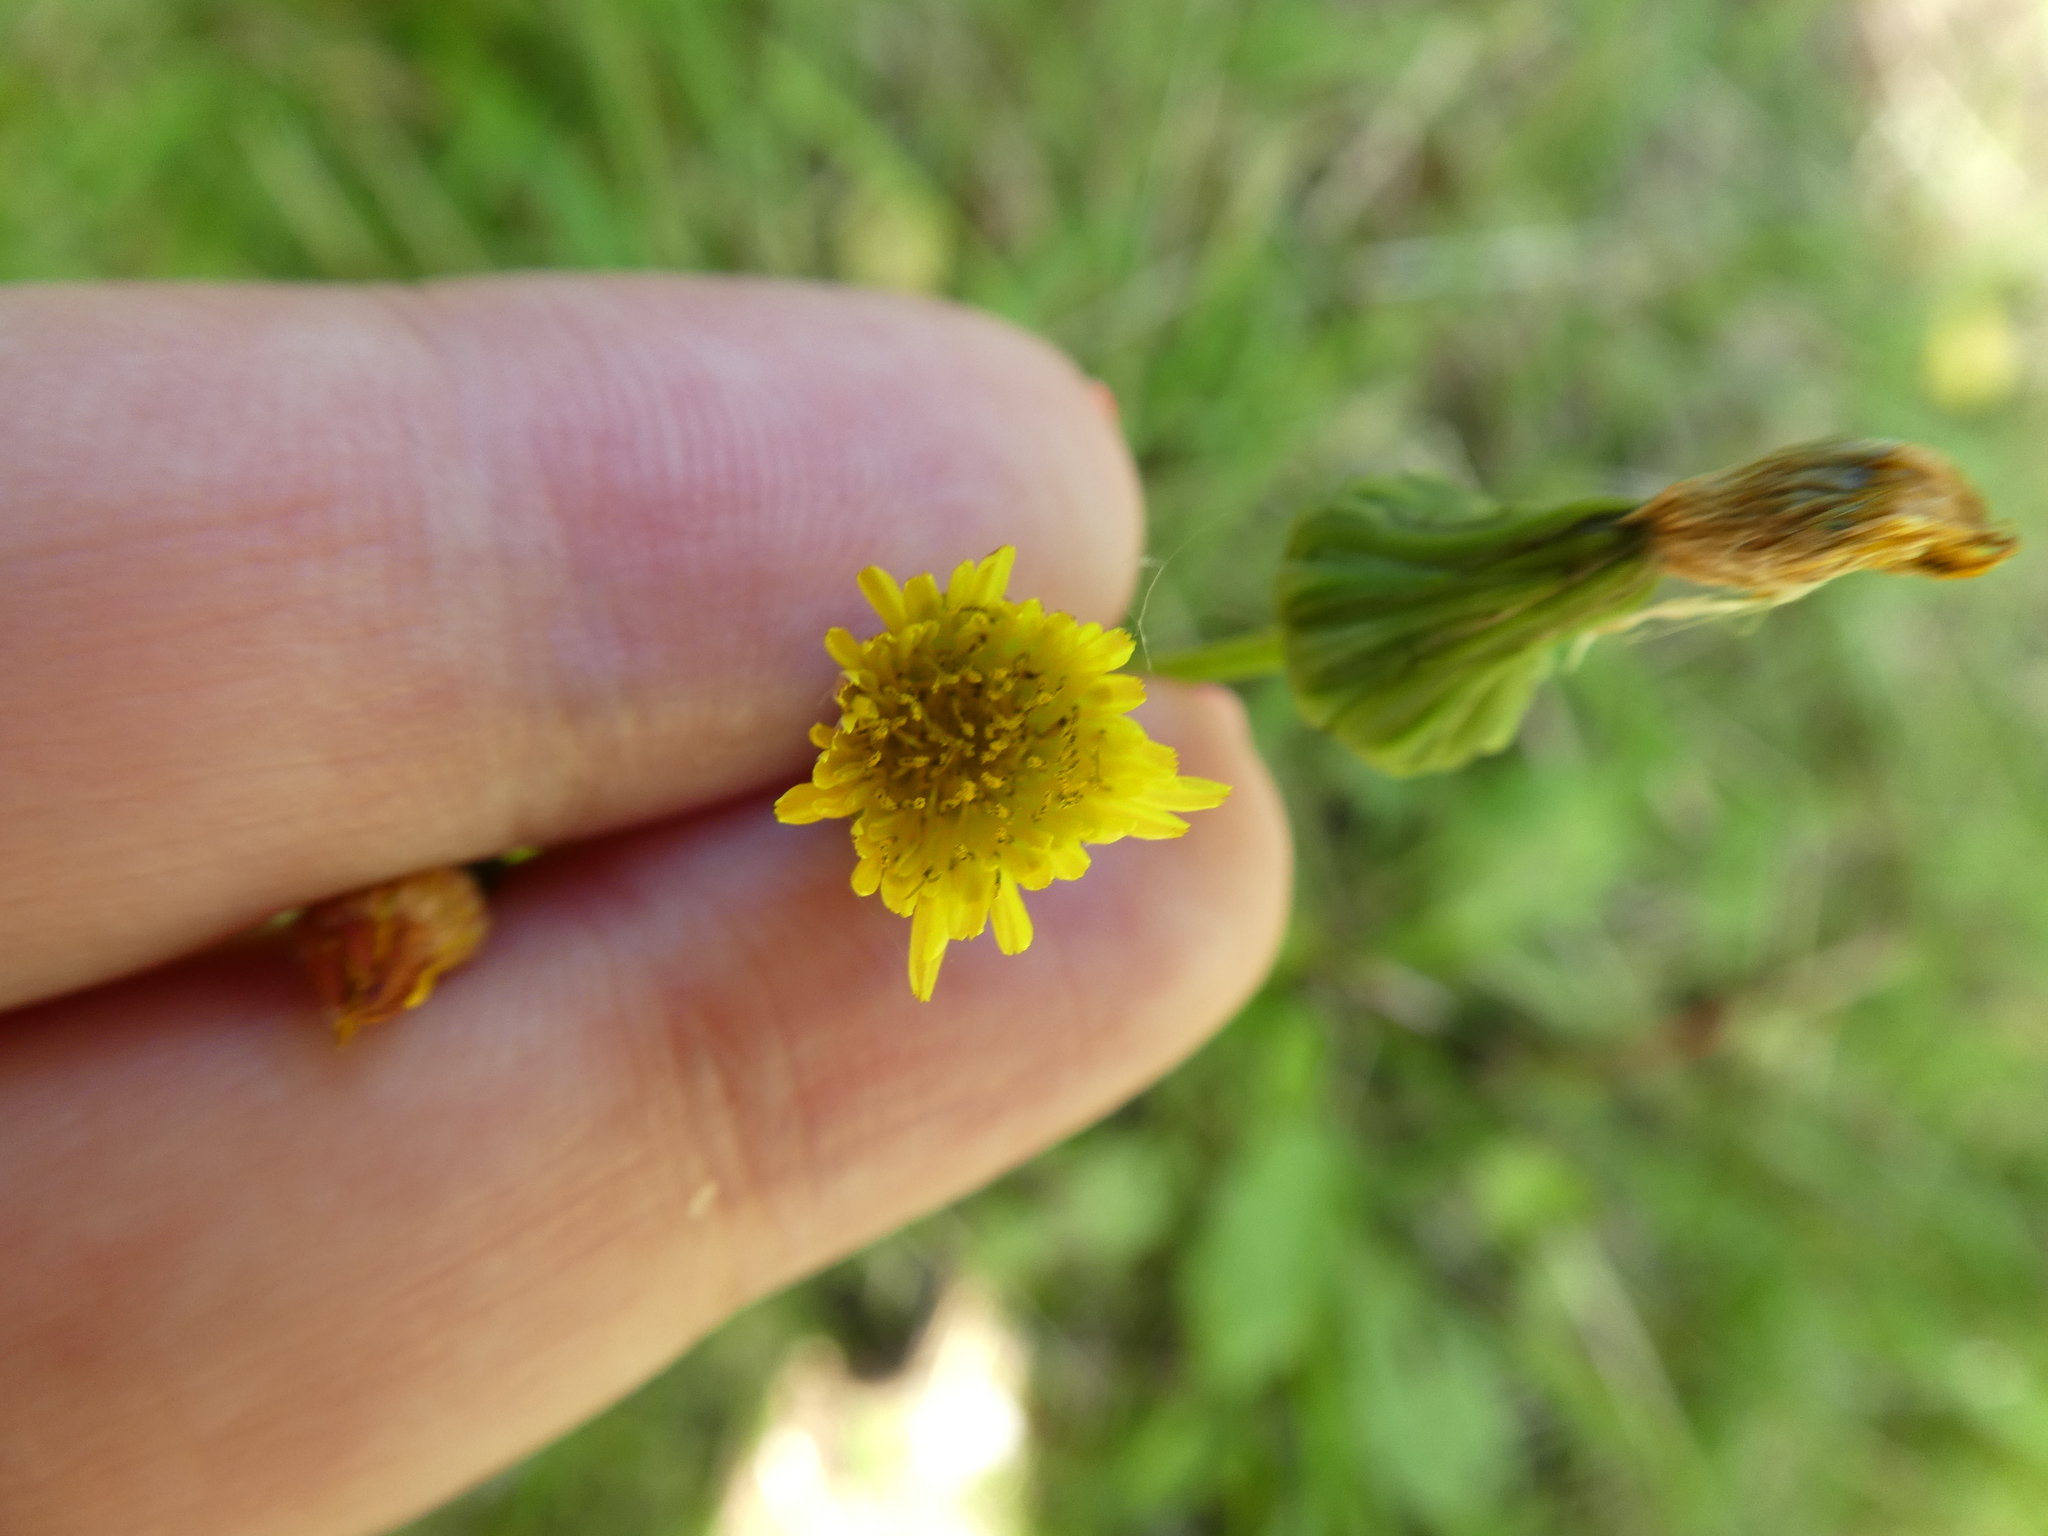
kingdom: Plantae
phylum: Tracheophyta
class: Magnoliopsida
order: Asterales
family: Asteraceae
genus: Sonchus
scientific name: Sonchus asper
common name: Prickly sow-thistle
